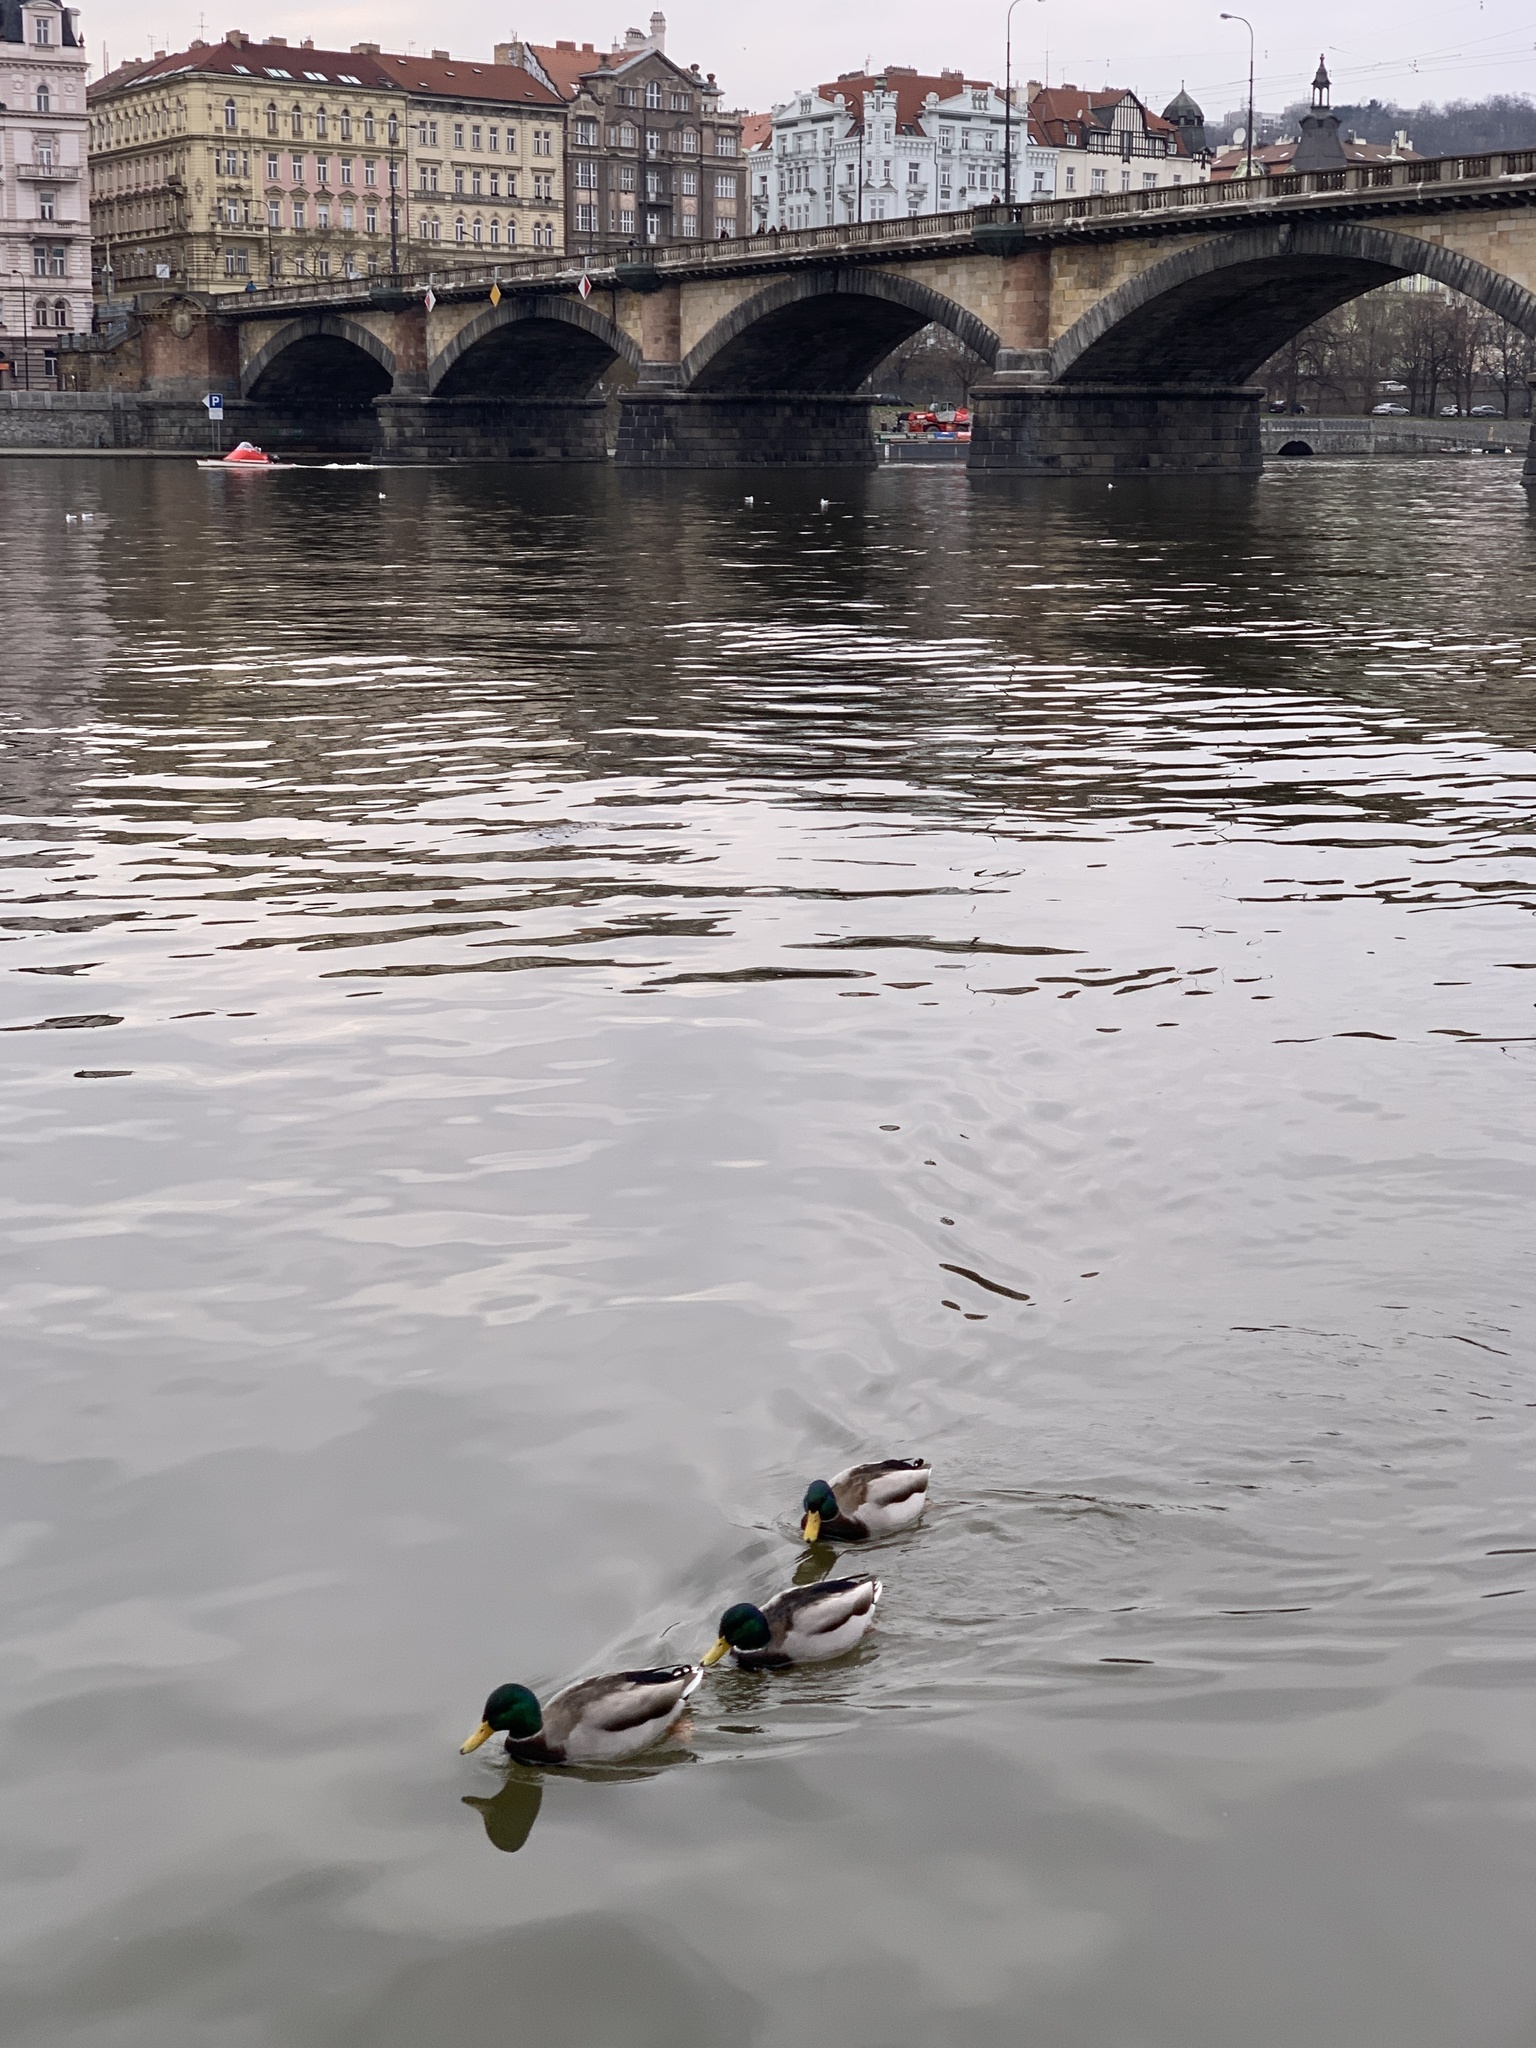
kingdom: Animalia
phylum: Chordata
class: Aves
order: Anseriformes
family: Anatidae
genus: Anas
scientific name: Anas platyrhynchos
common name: Mallard
